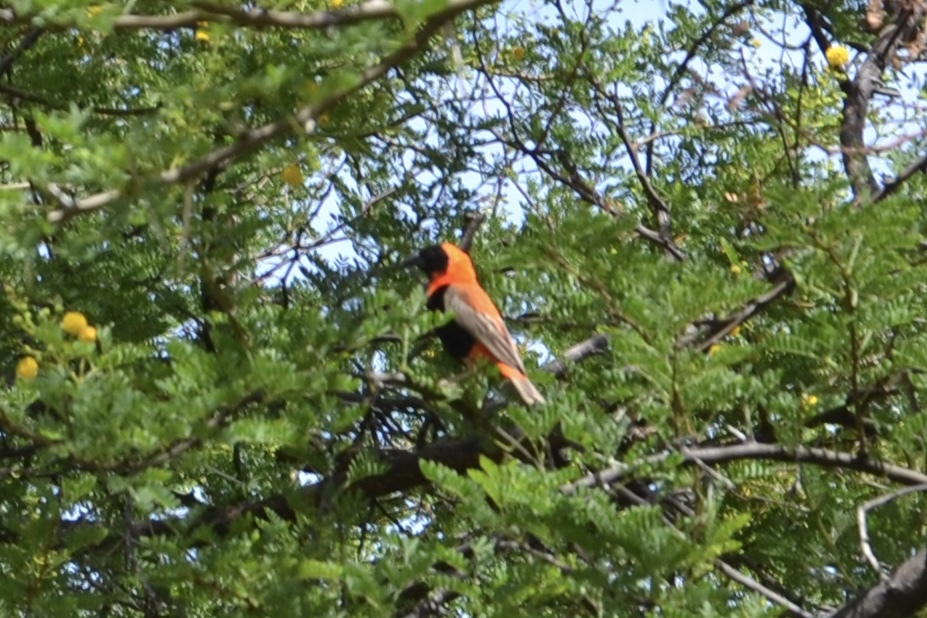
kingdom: Animalia
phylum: Chordata
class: Aves
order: Passeriformes
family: Ploceidae
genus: Euplectes
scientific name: Euplectes orix
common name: Southern red bishop
